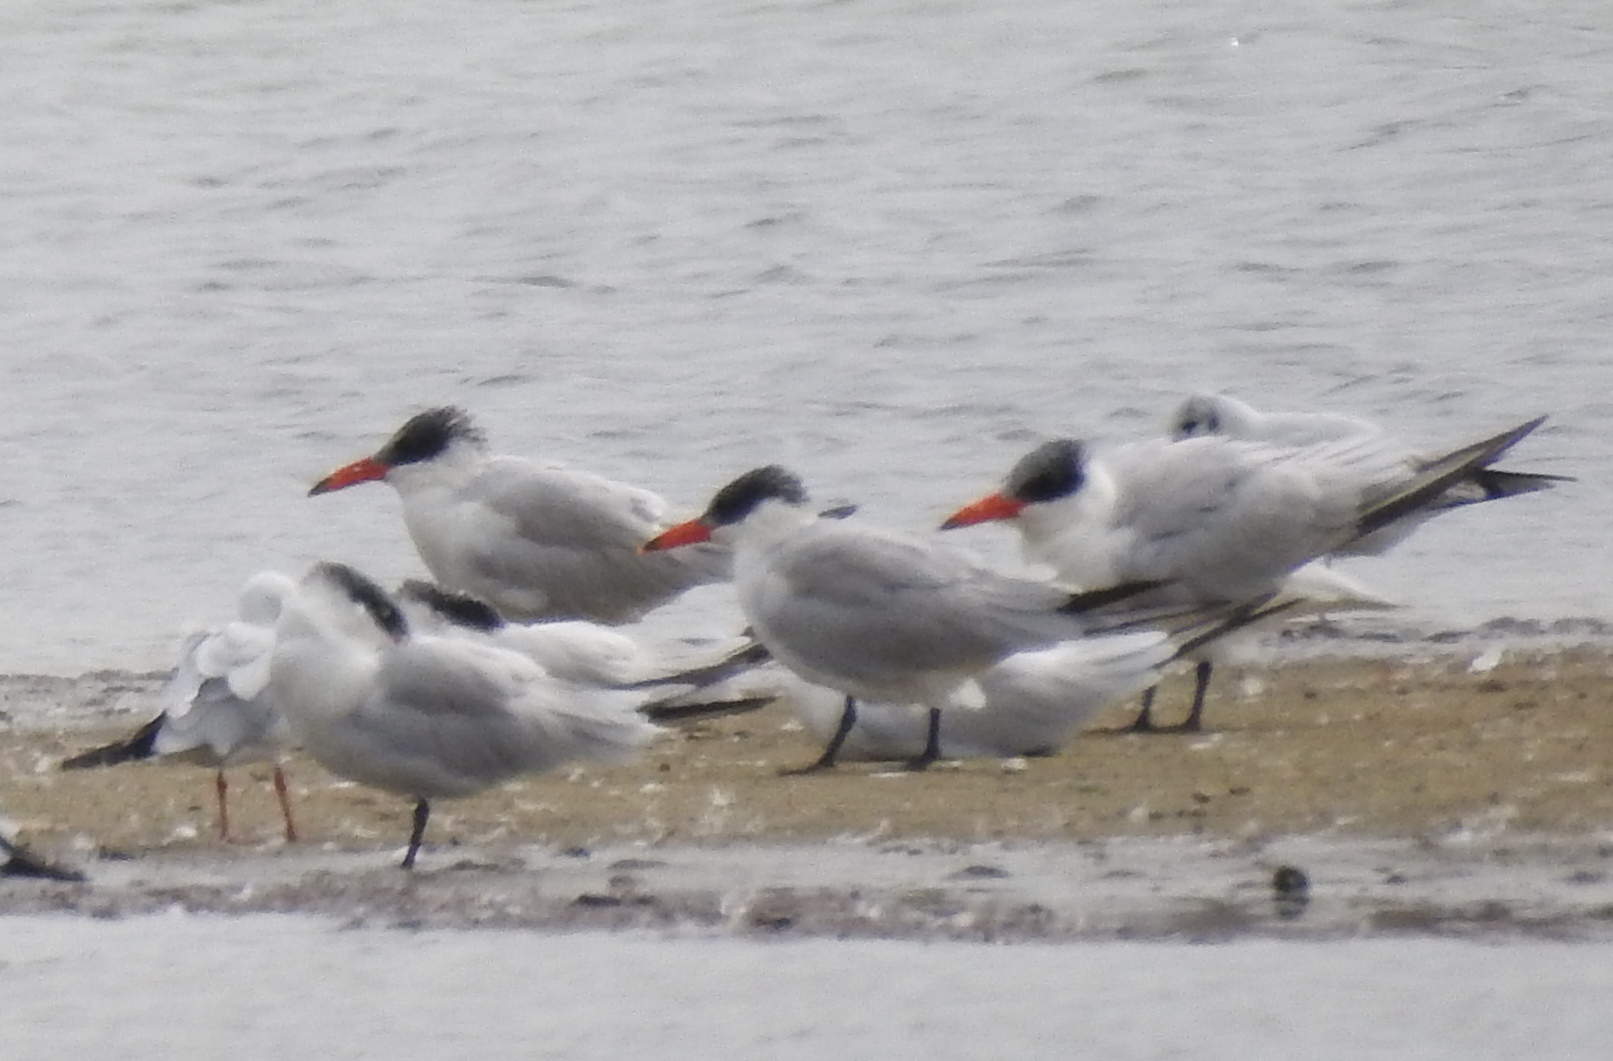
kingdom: Animalia
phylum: Chordata
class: Aves
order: Charadriiformes
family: Laridae
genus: Hydroprogne
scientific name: Hydroprogne caspia
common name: Caspian tern
